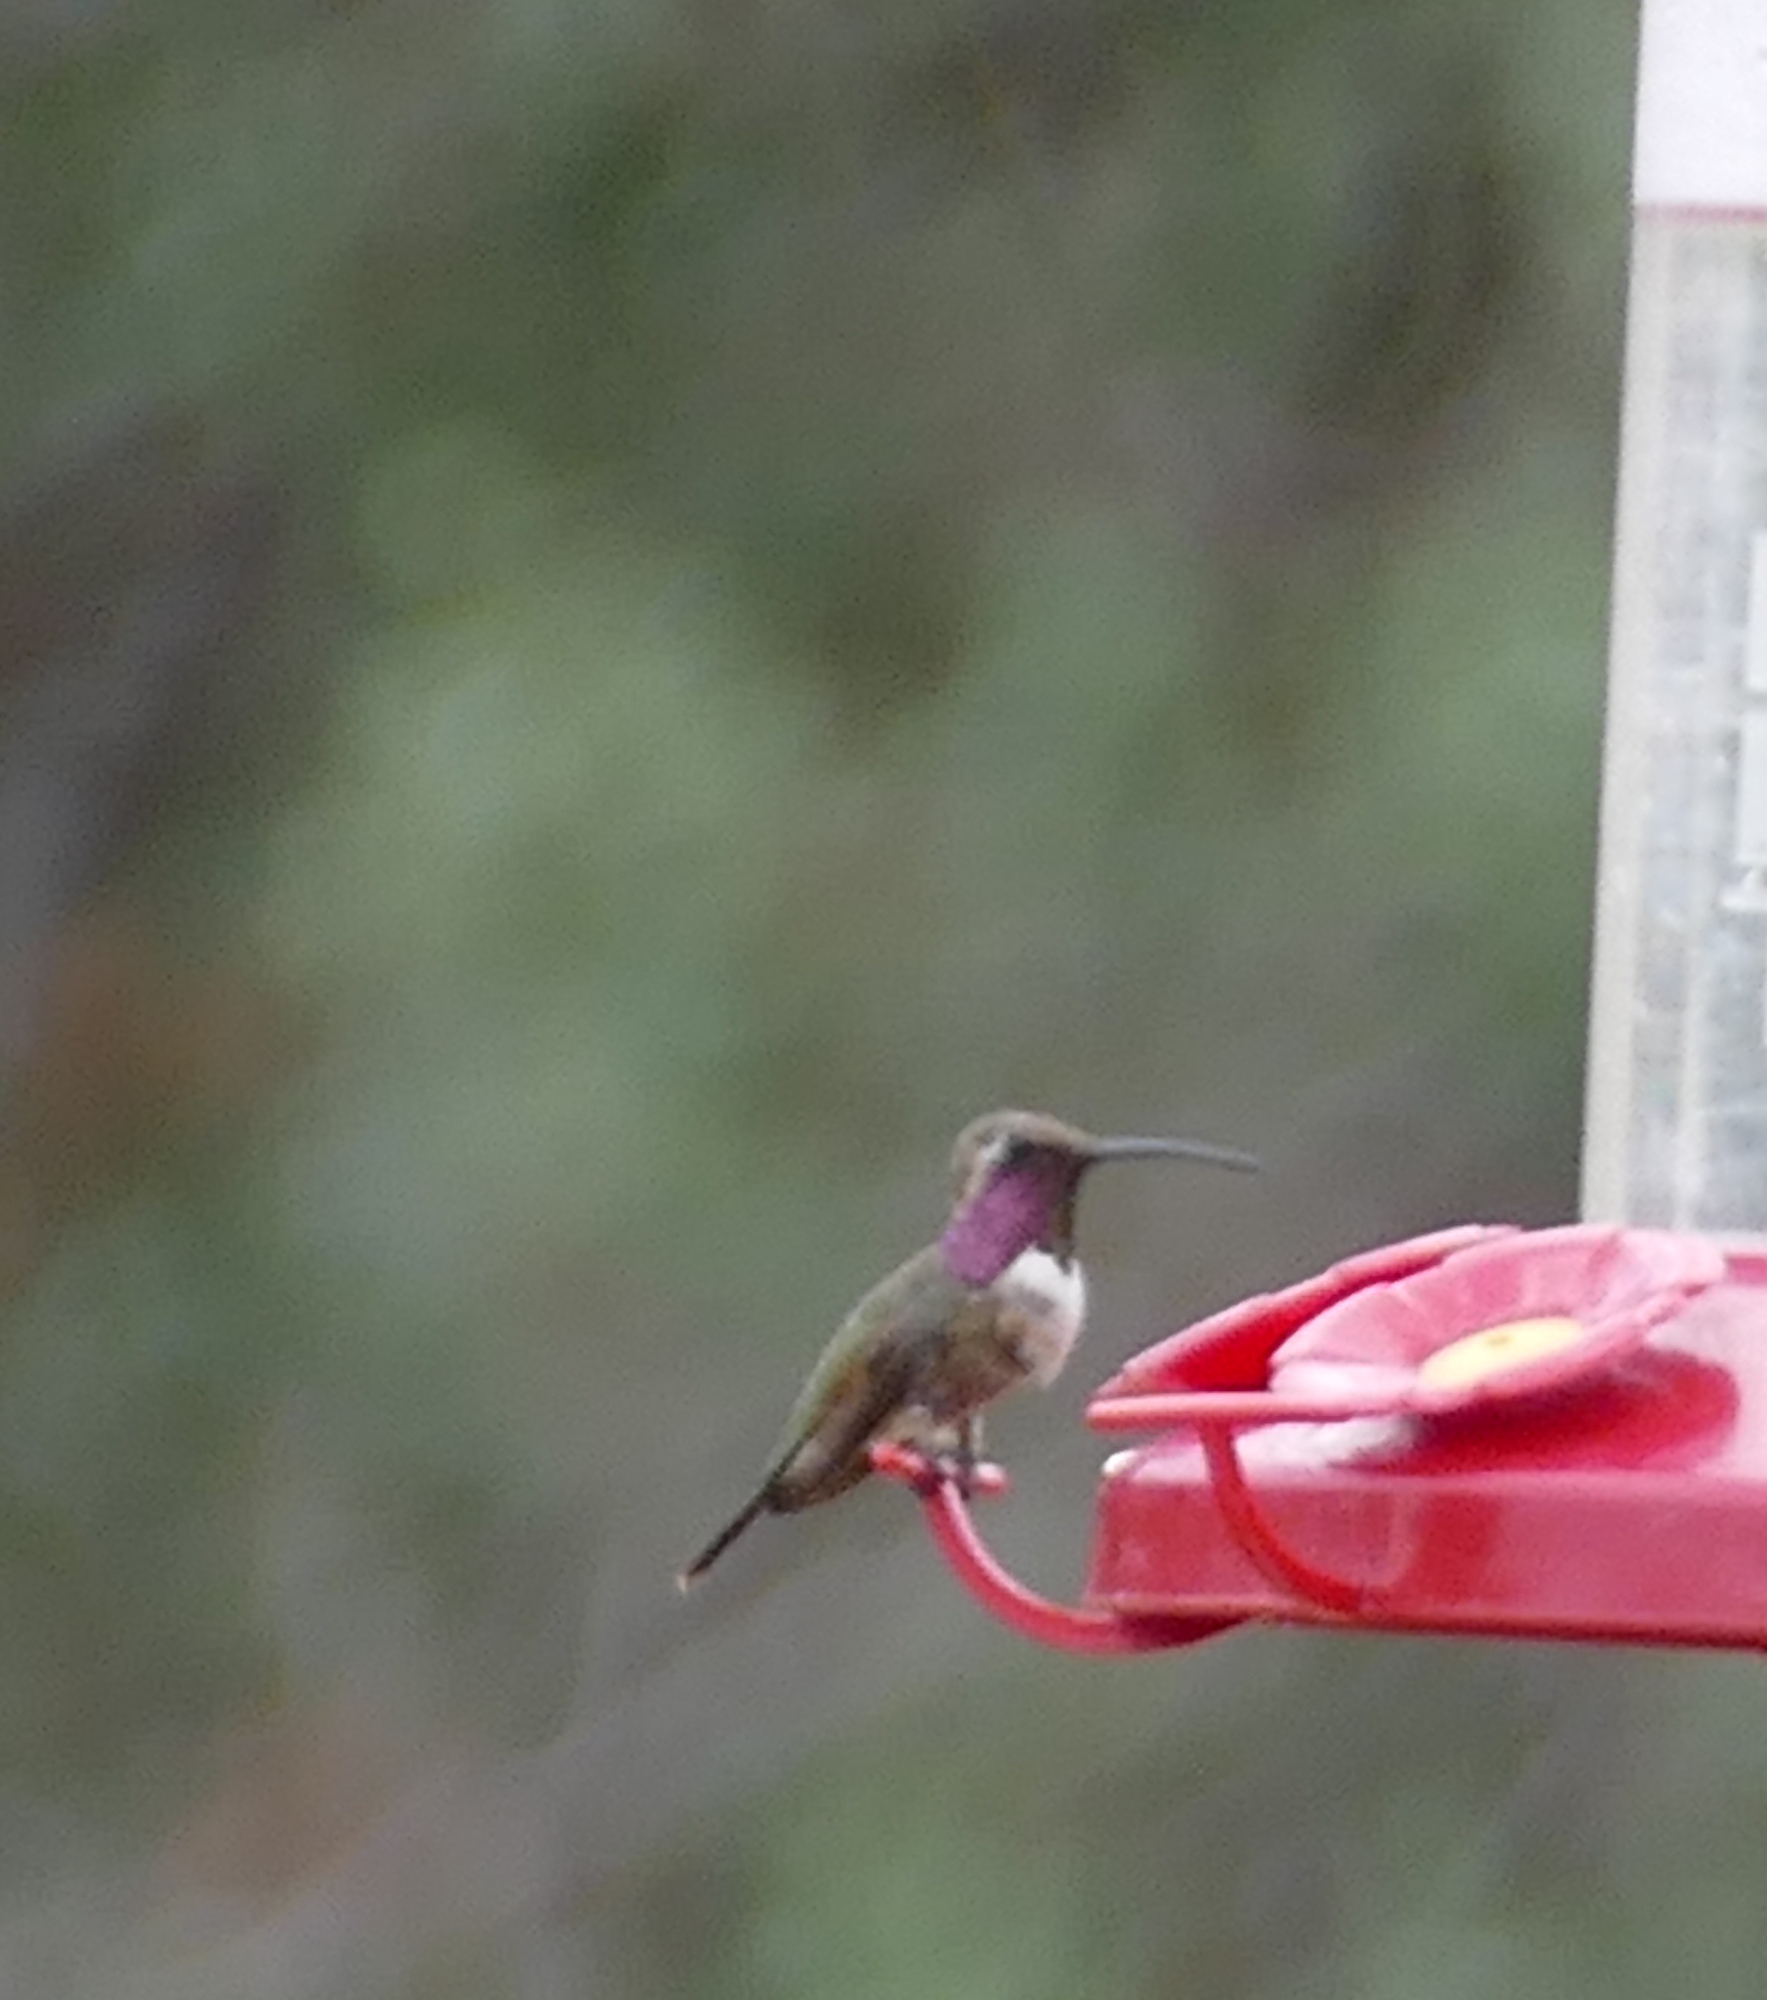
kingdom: Animalia
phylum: Chordata
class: Aves
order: Apodiformes
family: Trochilidae
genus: Calothorax
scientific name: Calothorax lucifer
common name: Lucifer sheartail
